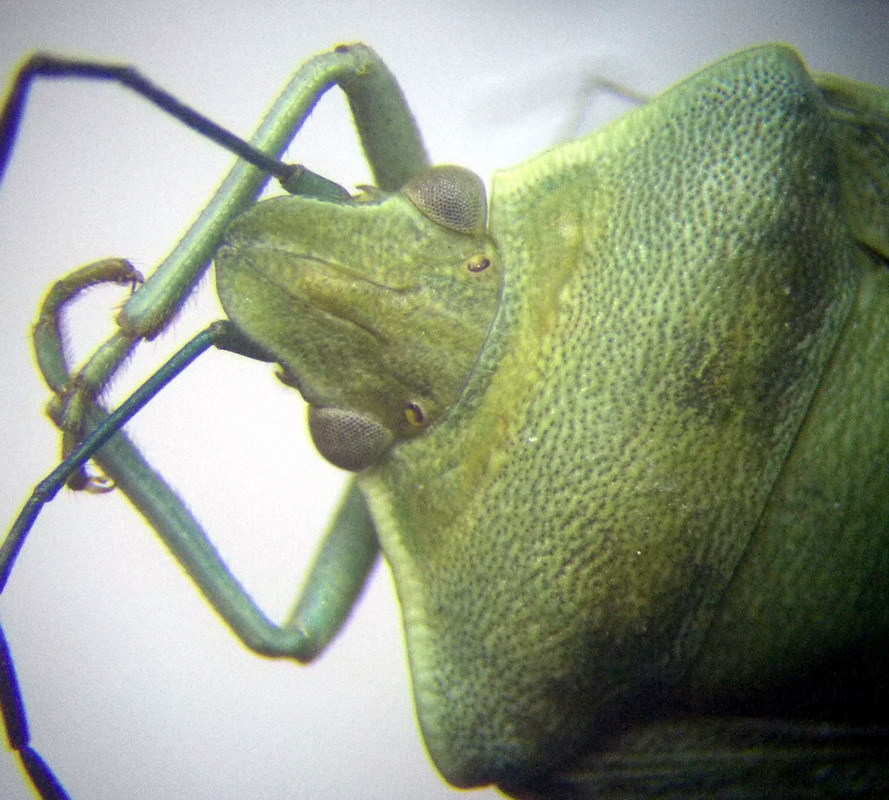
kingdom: Animalia
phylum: Arthropoda
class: Insecta
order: Hemiptera
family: Pentatomidae
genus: Brachynema
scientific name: Brachynema germarii
